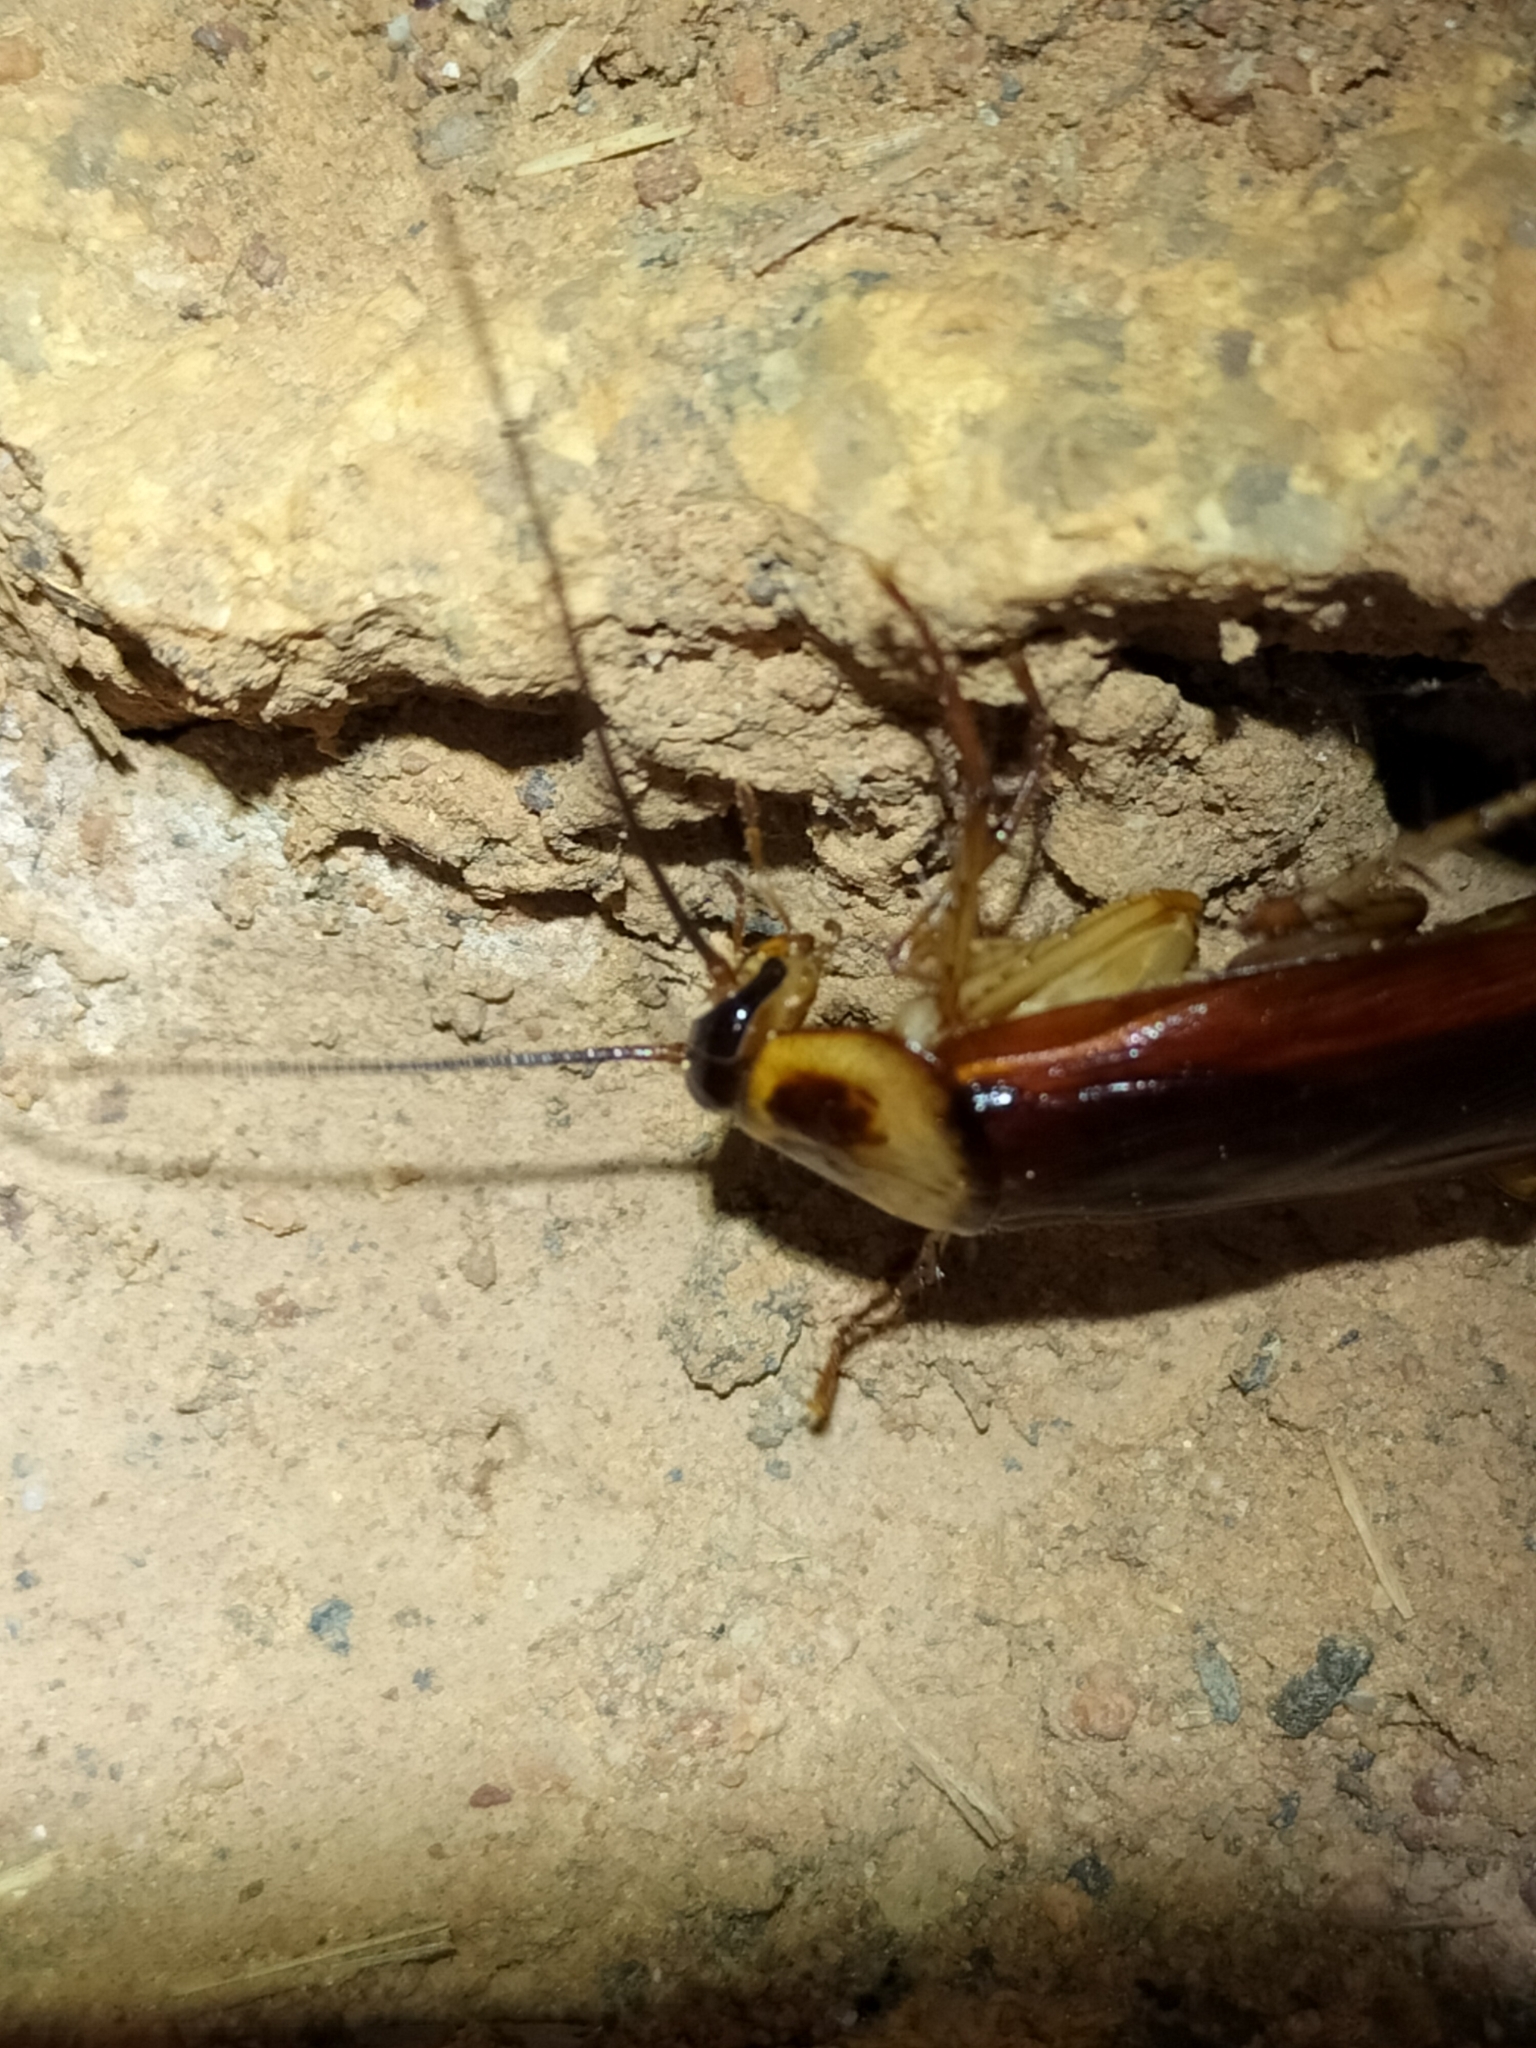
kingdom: Animalia
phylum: Arthropoda
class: Insecta
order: Blattodea
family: Blattidae
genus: Periplaneta
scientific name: Periplaneta americana
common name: American cockroach
